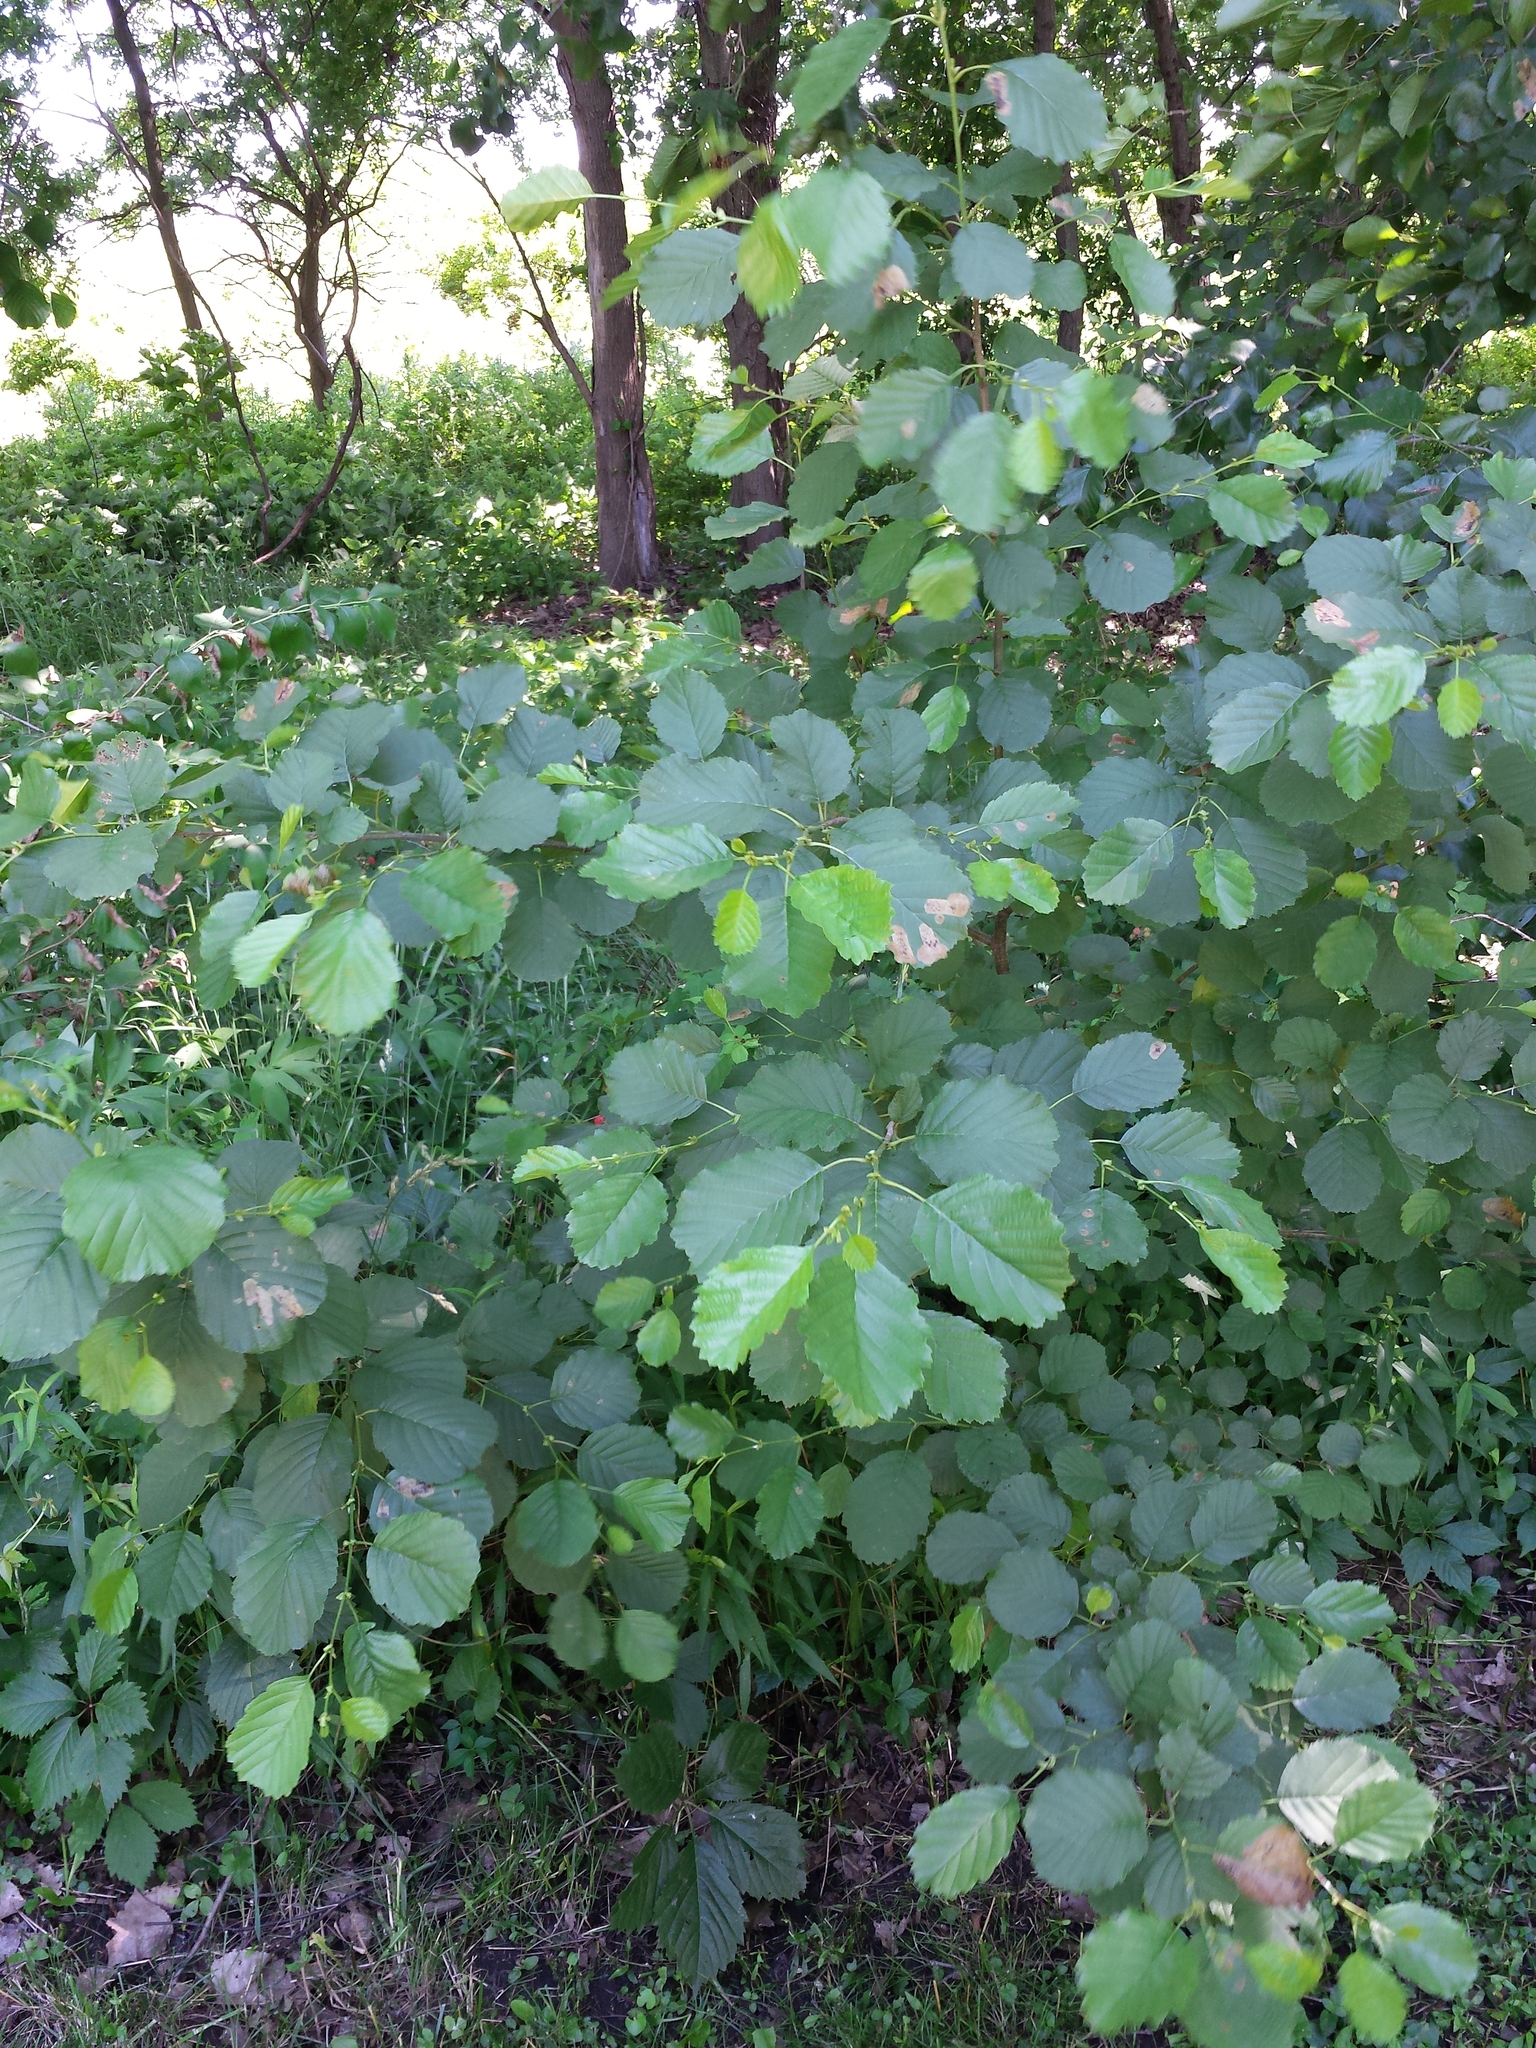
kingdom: Plantae
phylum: Tracheophyta
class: Magnoliopsida
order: Fagales
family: Betulaceae
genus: Alnus
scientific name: Alnus glutinosa
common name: Black alder
